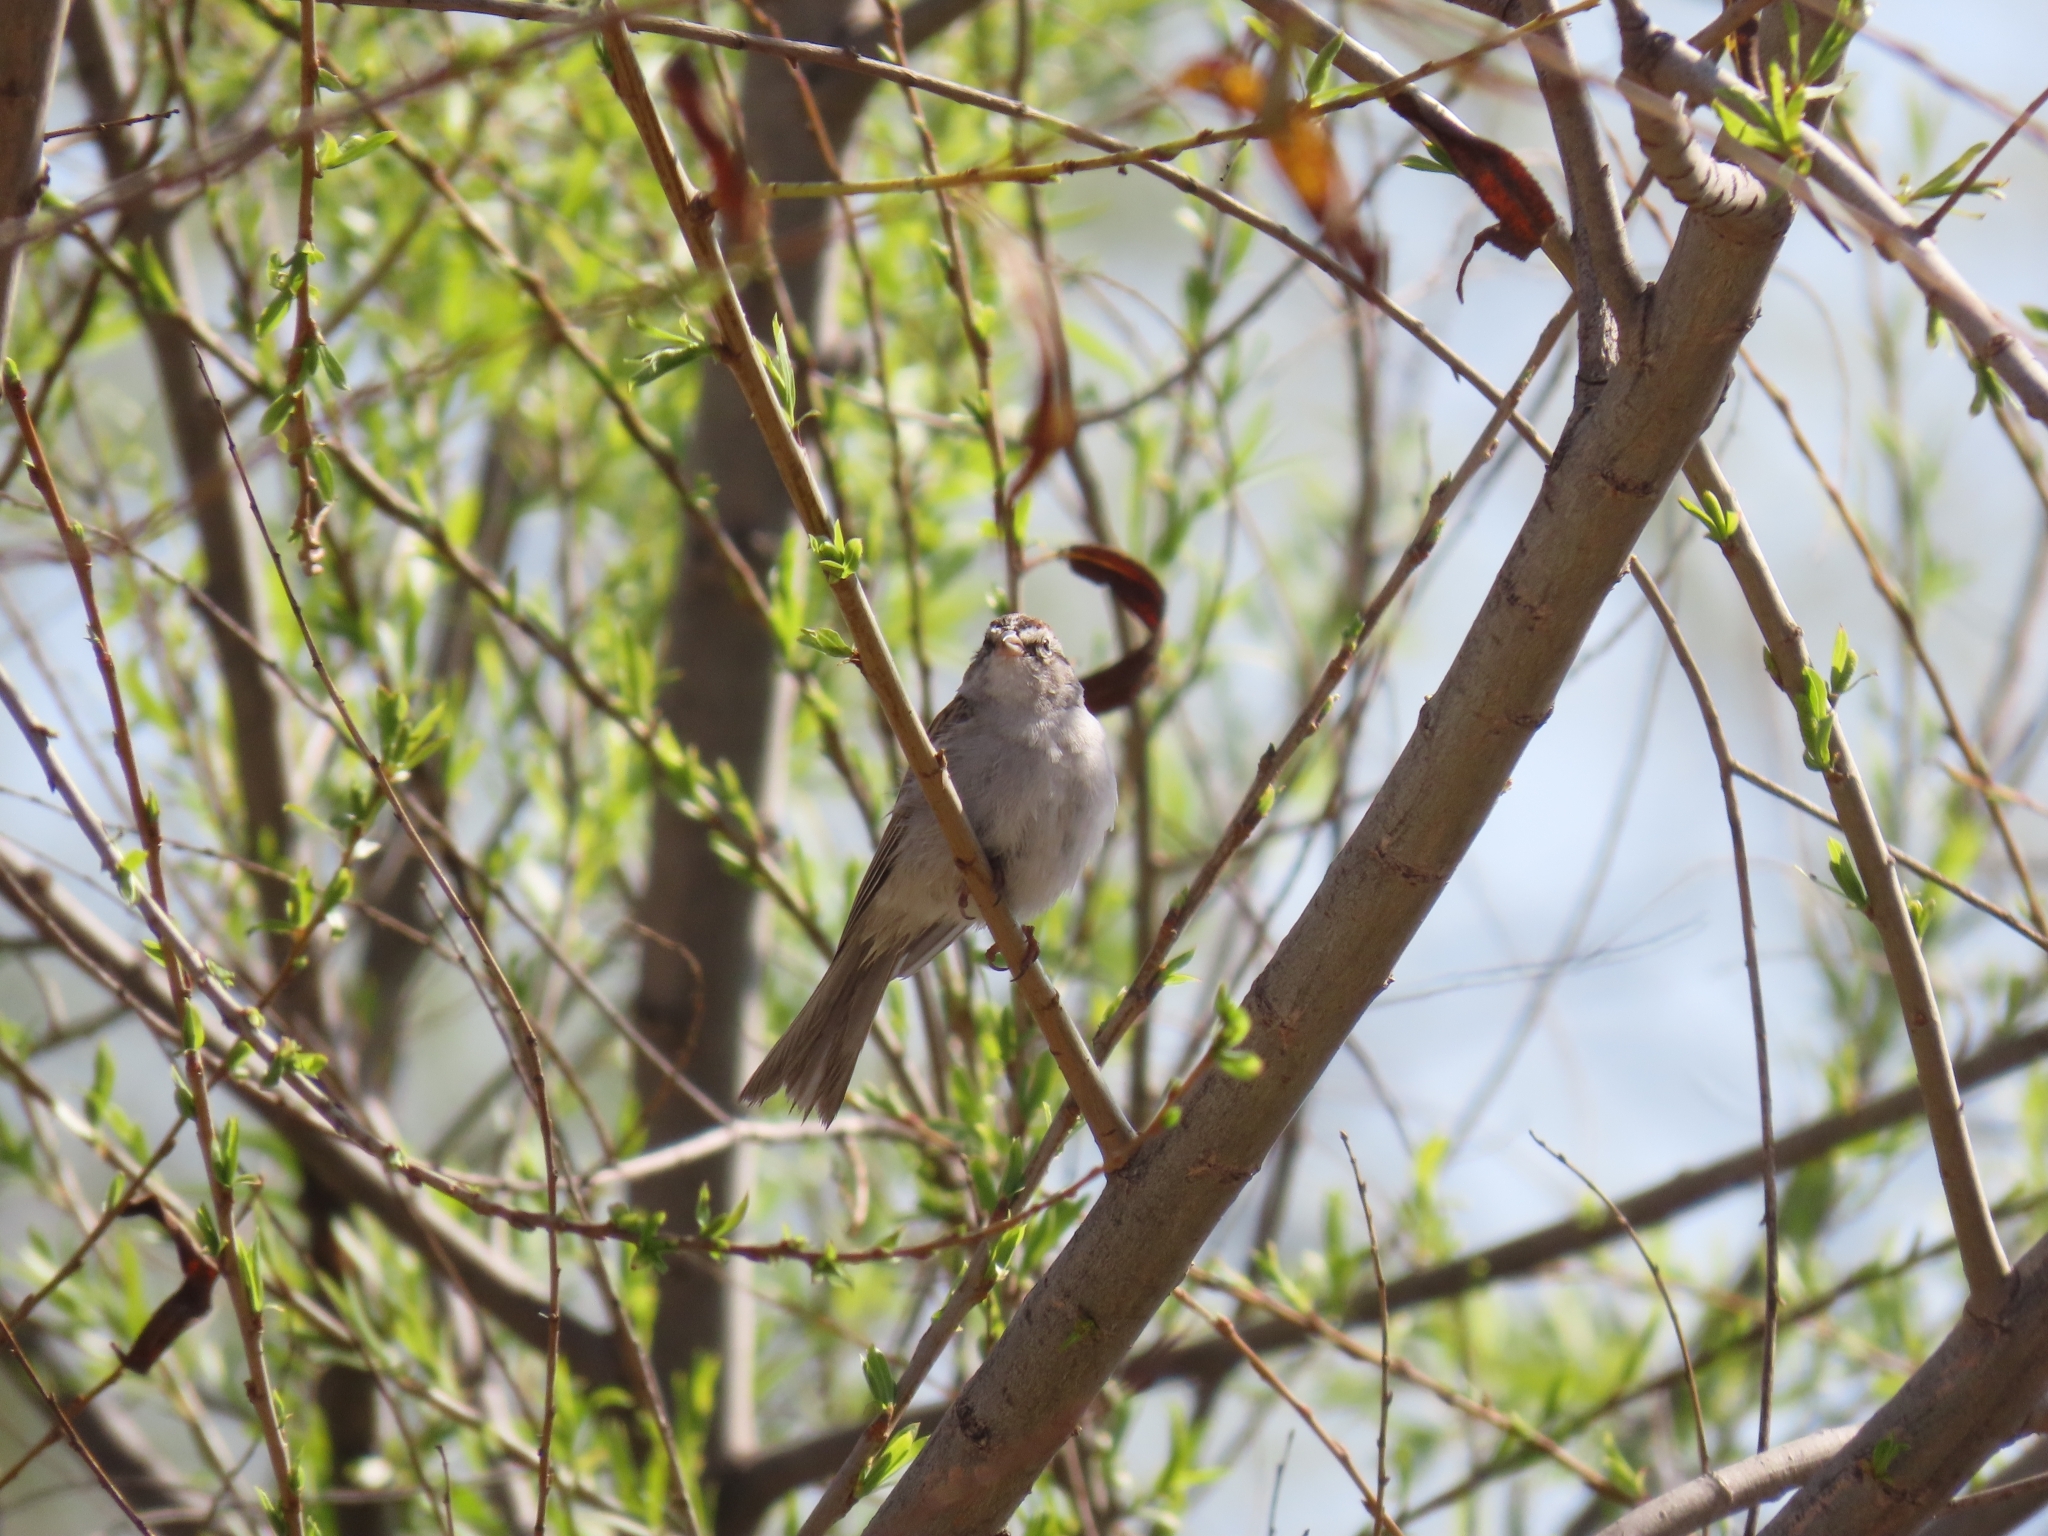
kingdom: Animalia
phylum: Chordata
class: Aves
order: Passeriformes
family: Passerellidae
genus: Spizella
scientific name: Spizella passerina
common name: Chipping sparrow
